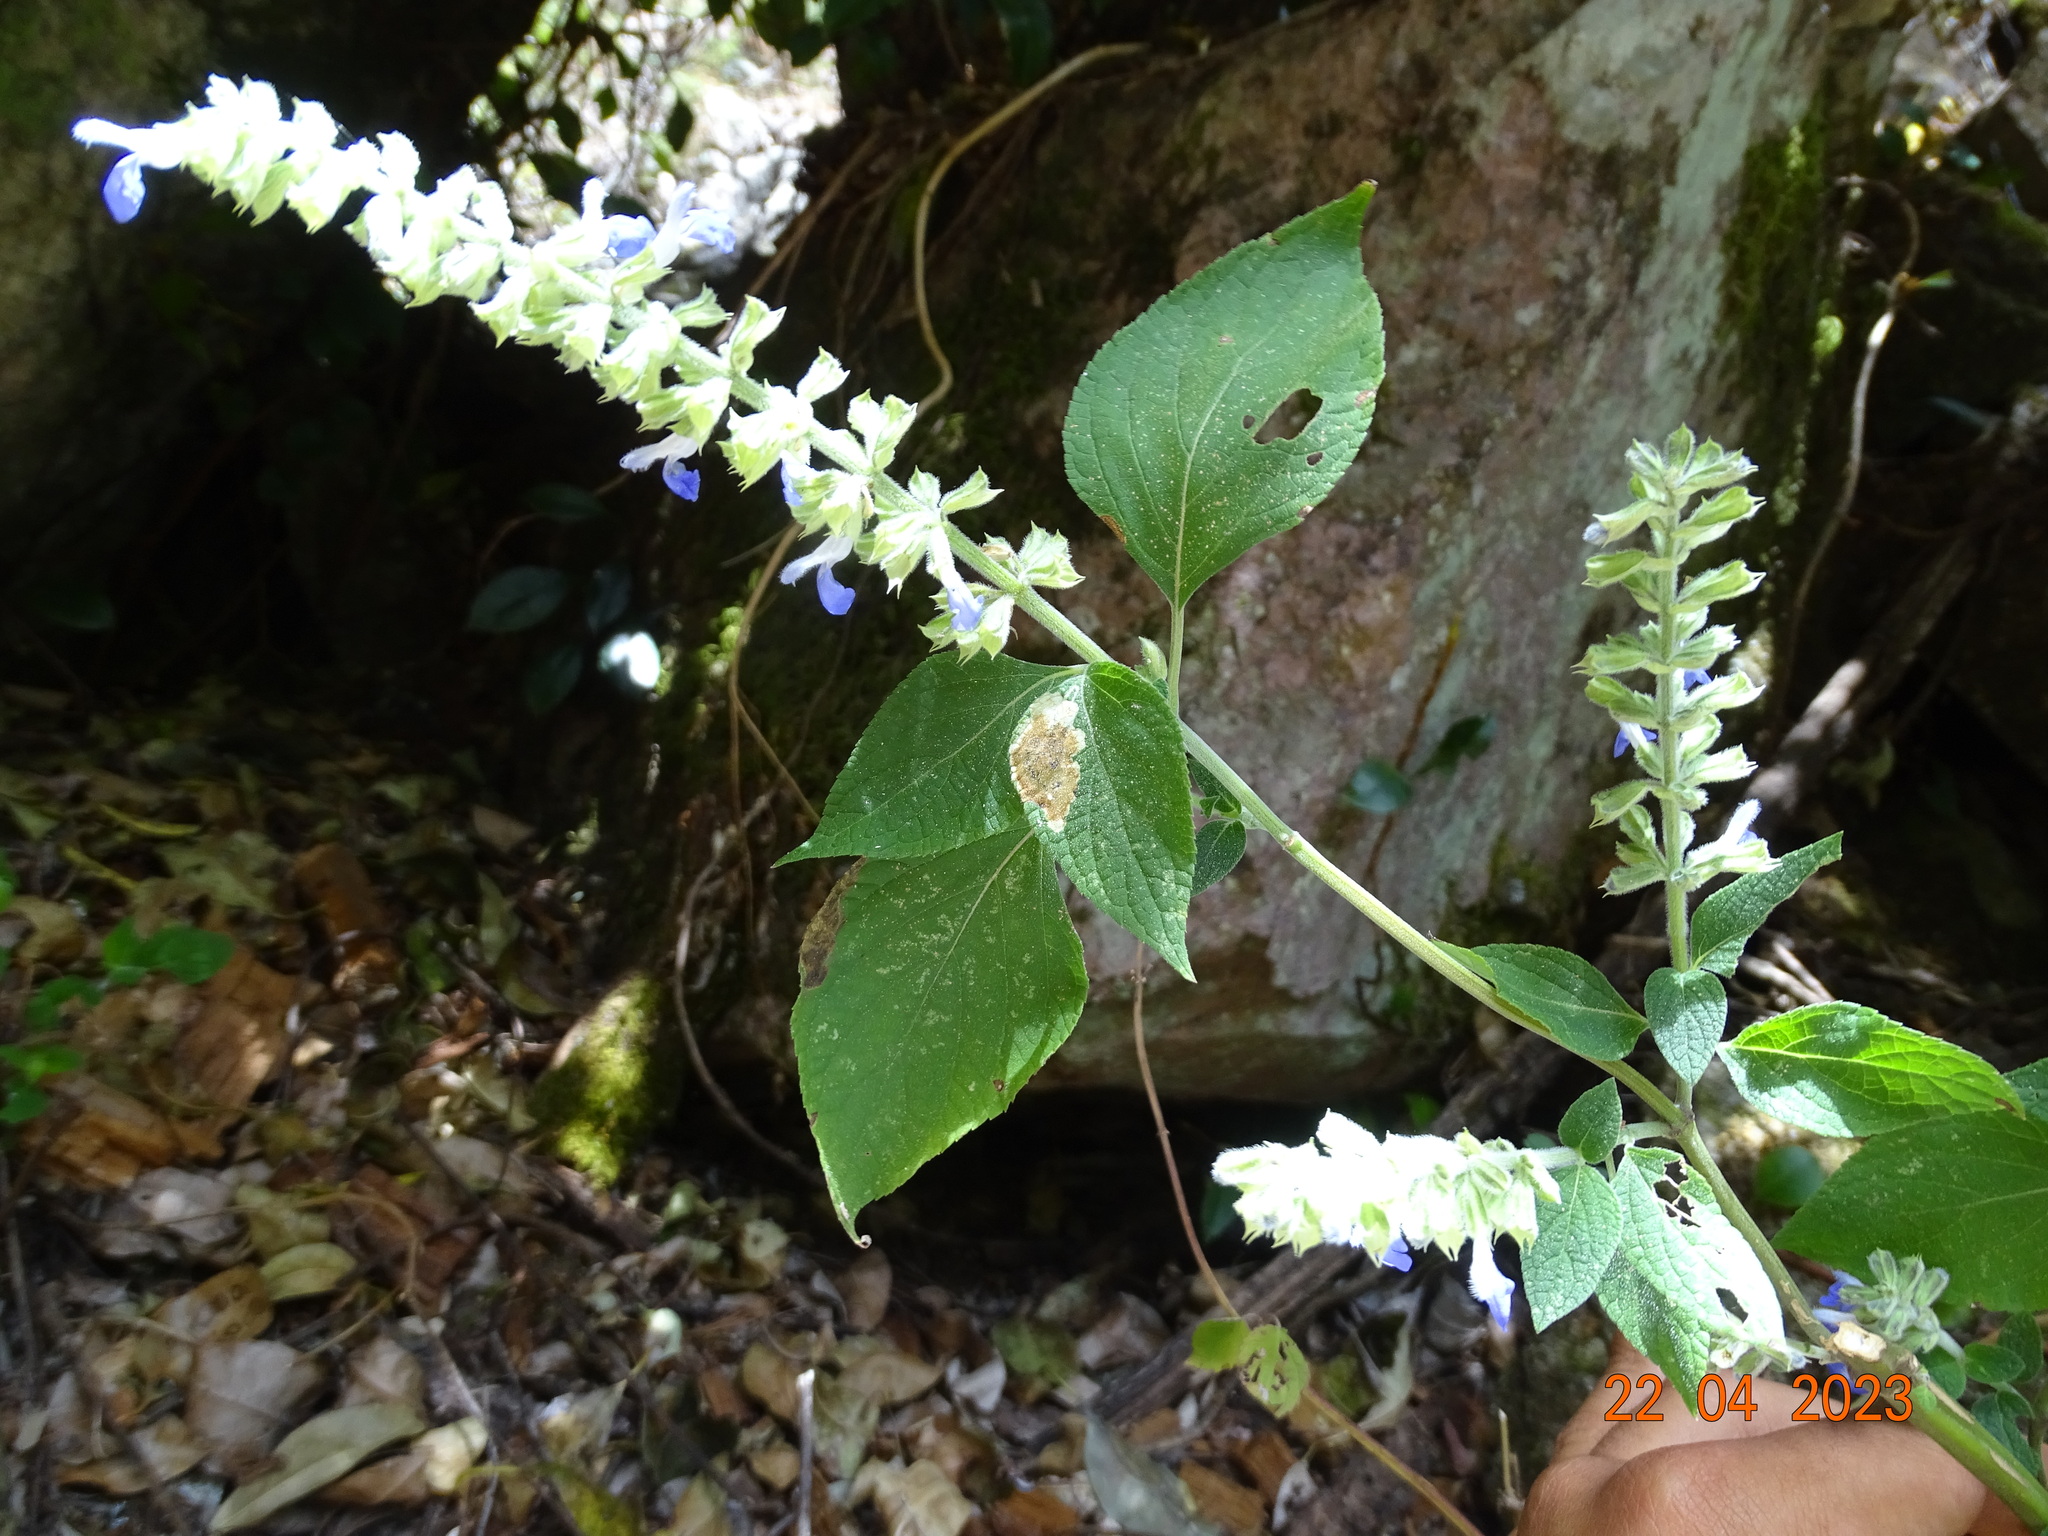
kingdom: Plantae
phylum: Tracheophyta
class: Magnoliopsida
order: Lamiales
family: Lamiaceae
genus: Salvia
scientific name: Salvia longispicata
